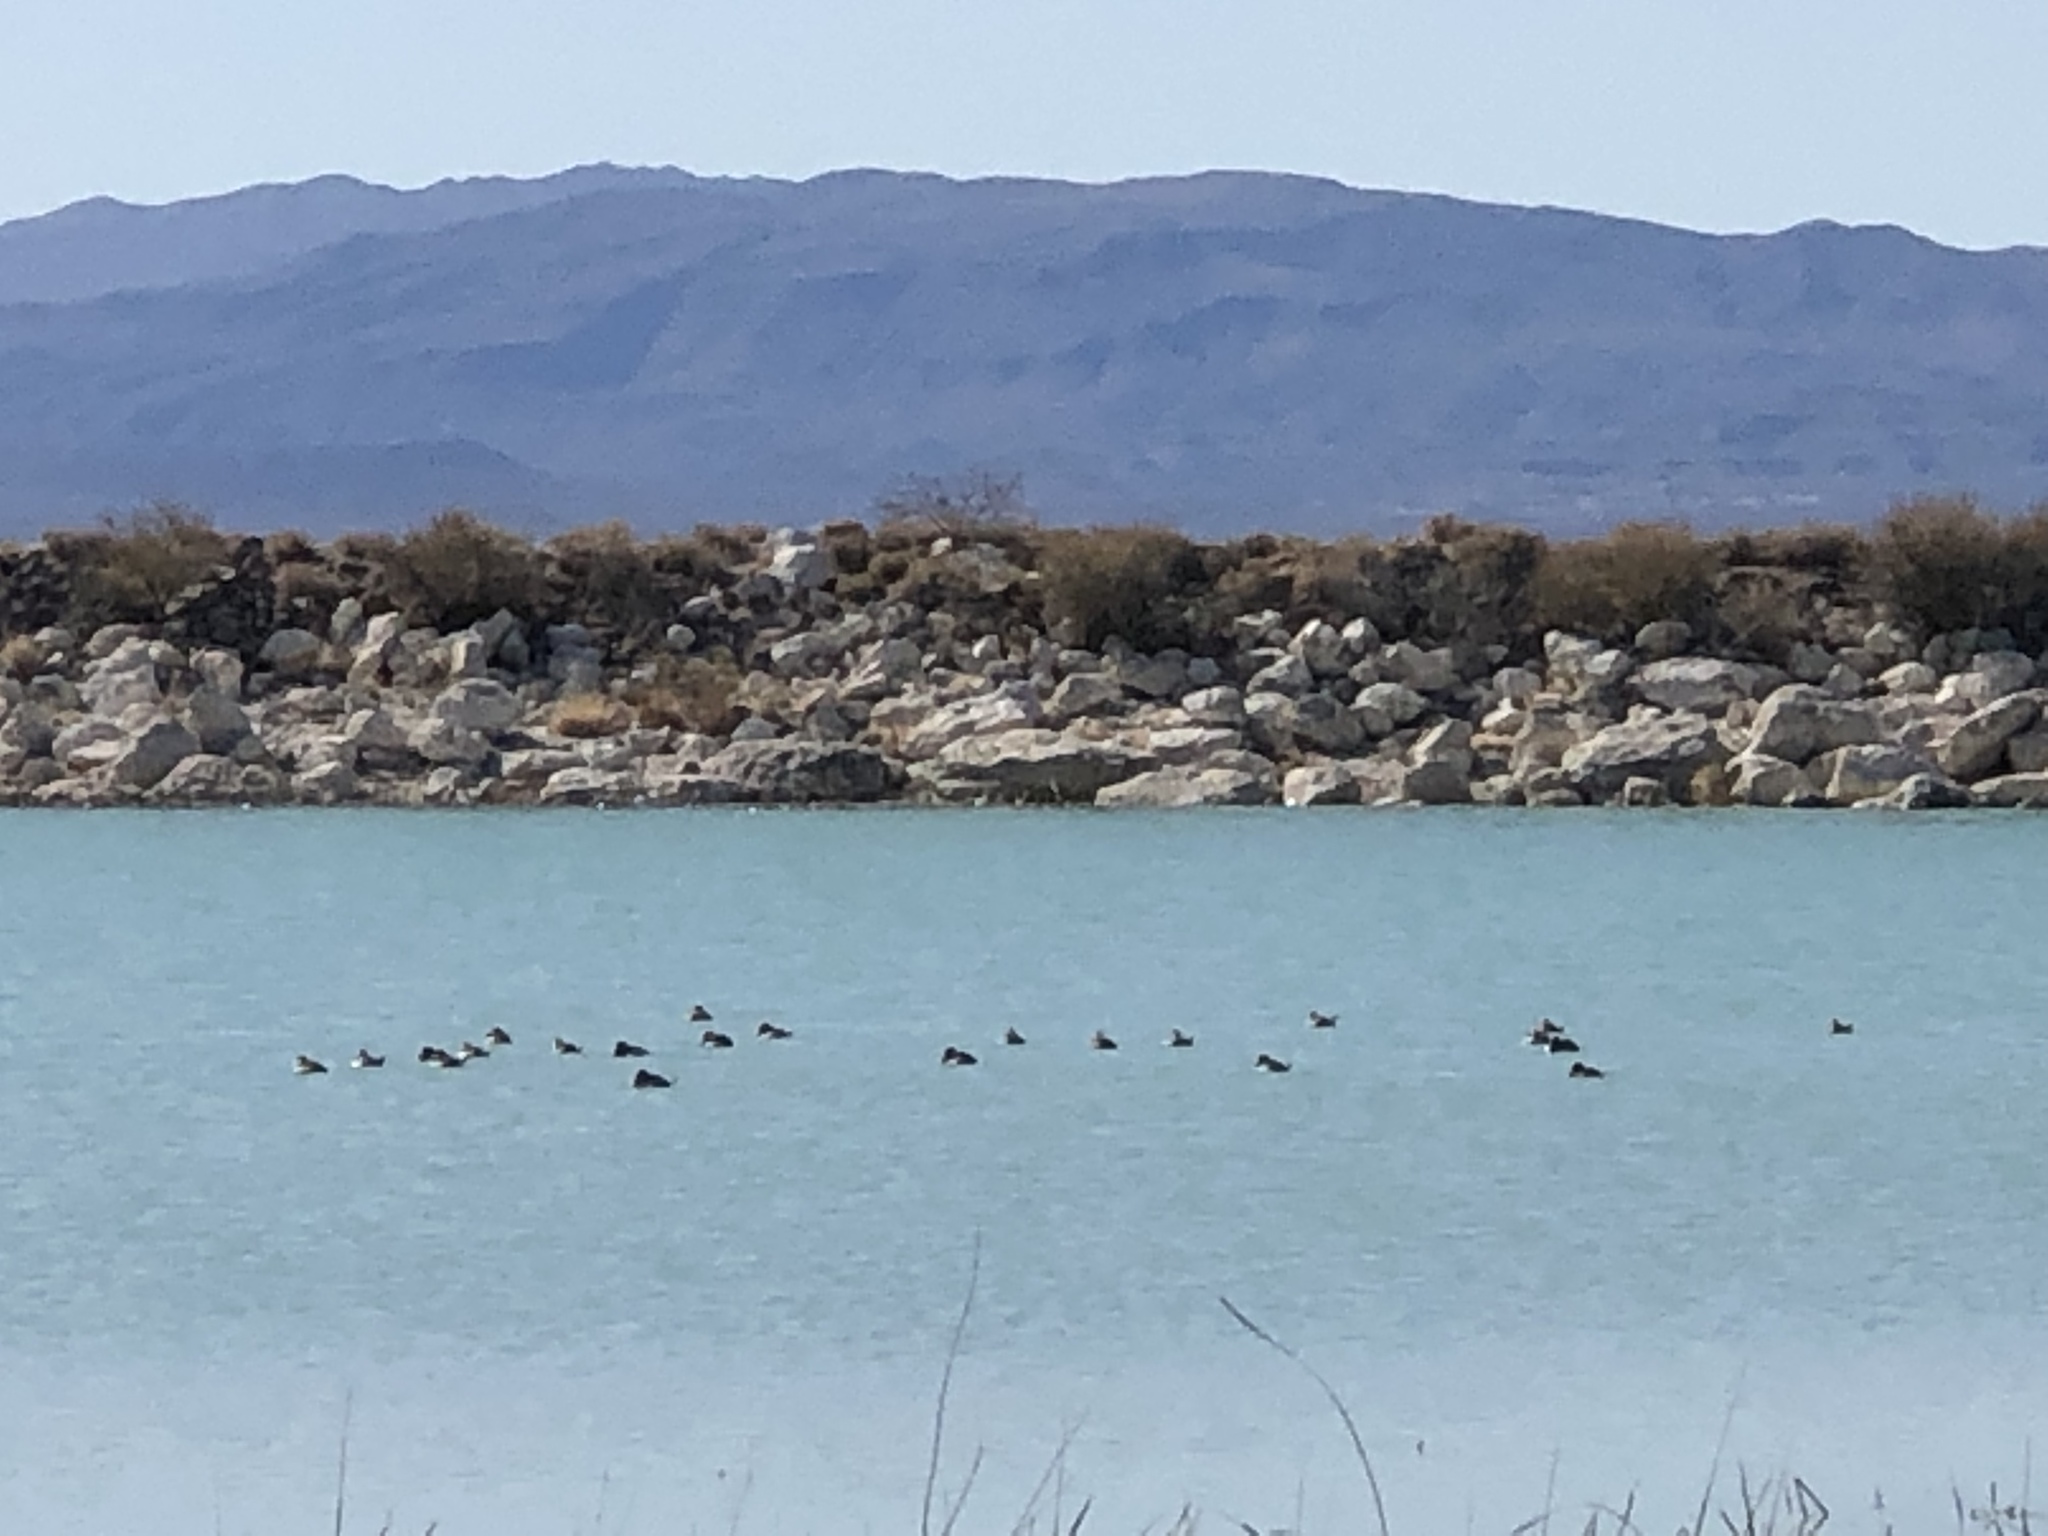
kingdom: Animalia
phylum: Chordata
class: Aves
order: Anseriformes
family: Anatidae
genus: Oxyura
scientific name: Oxyura jamaicensis
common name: Ruddy duck
